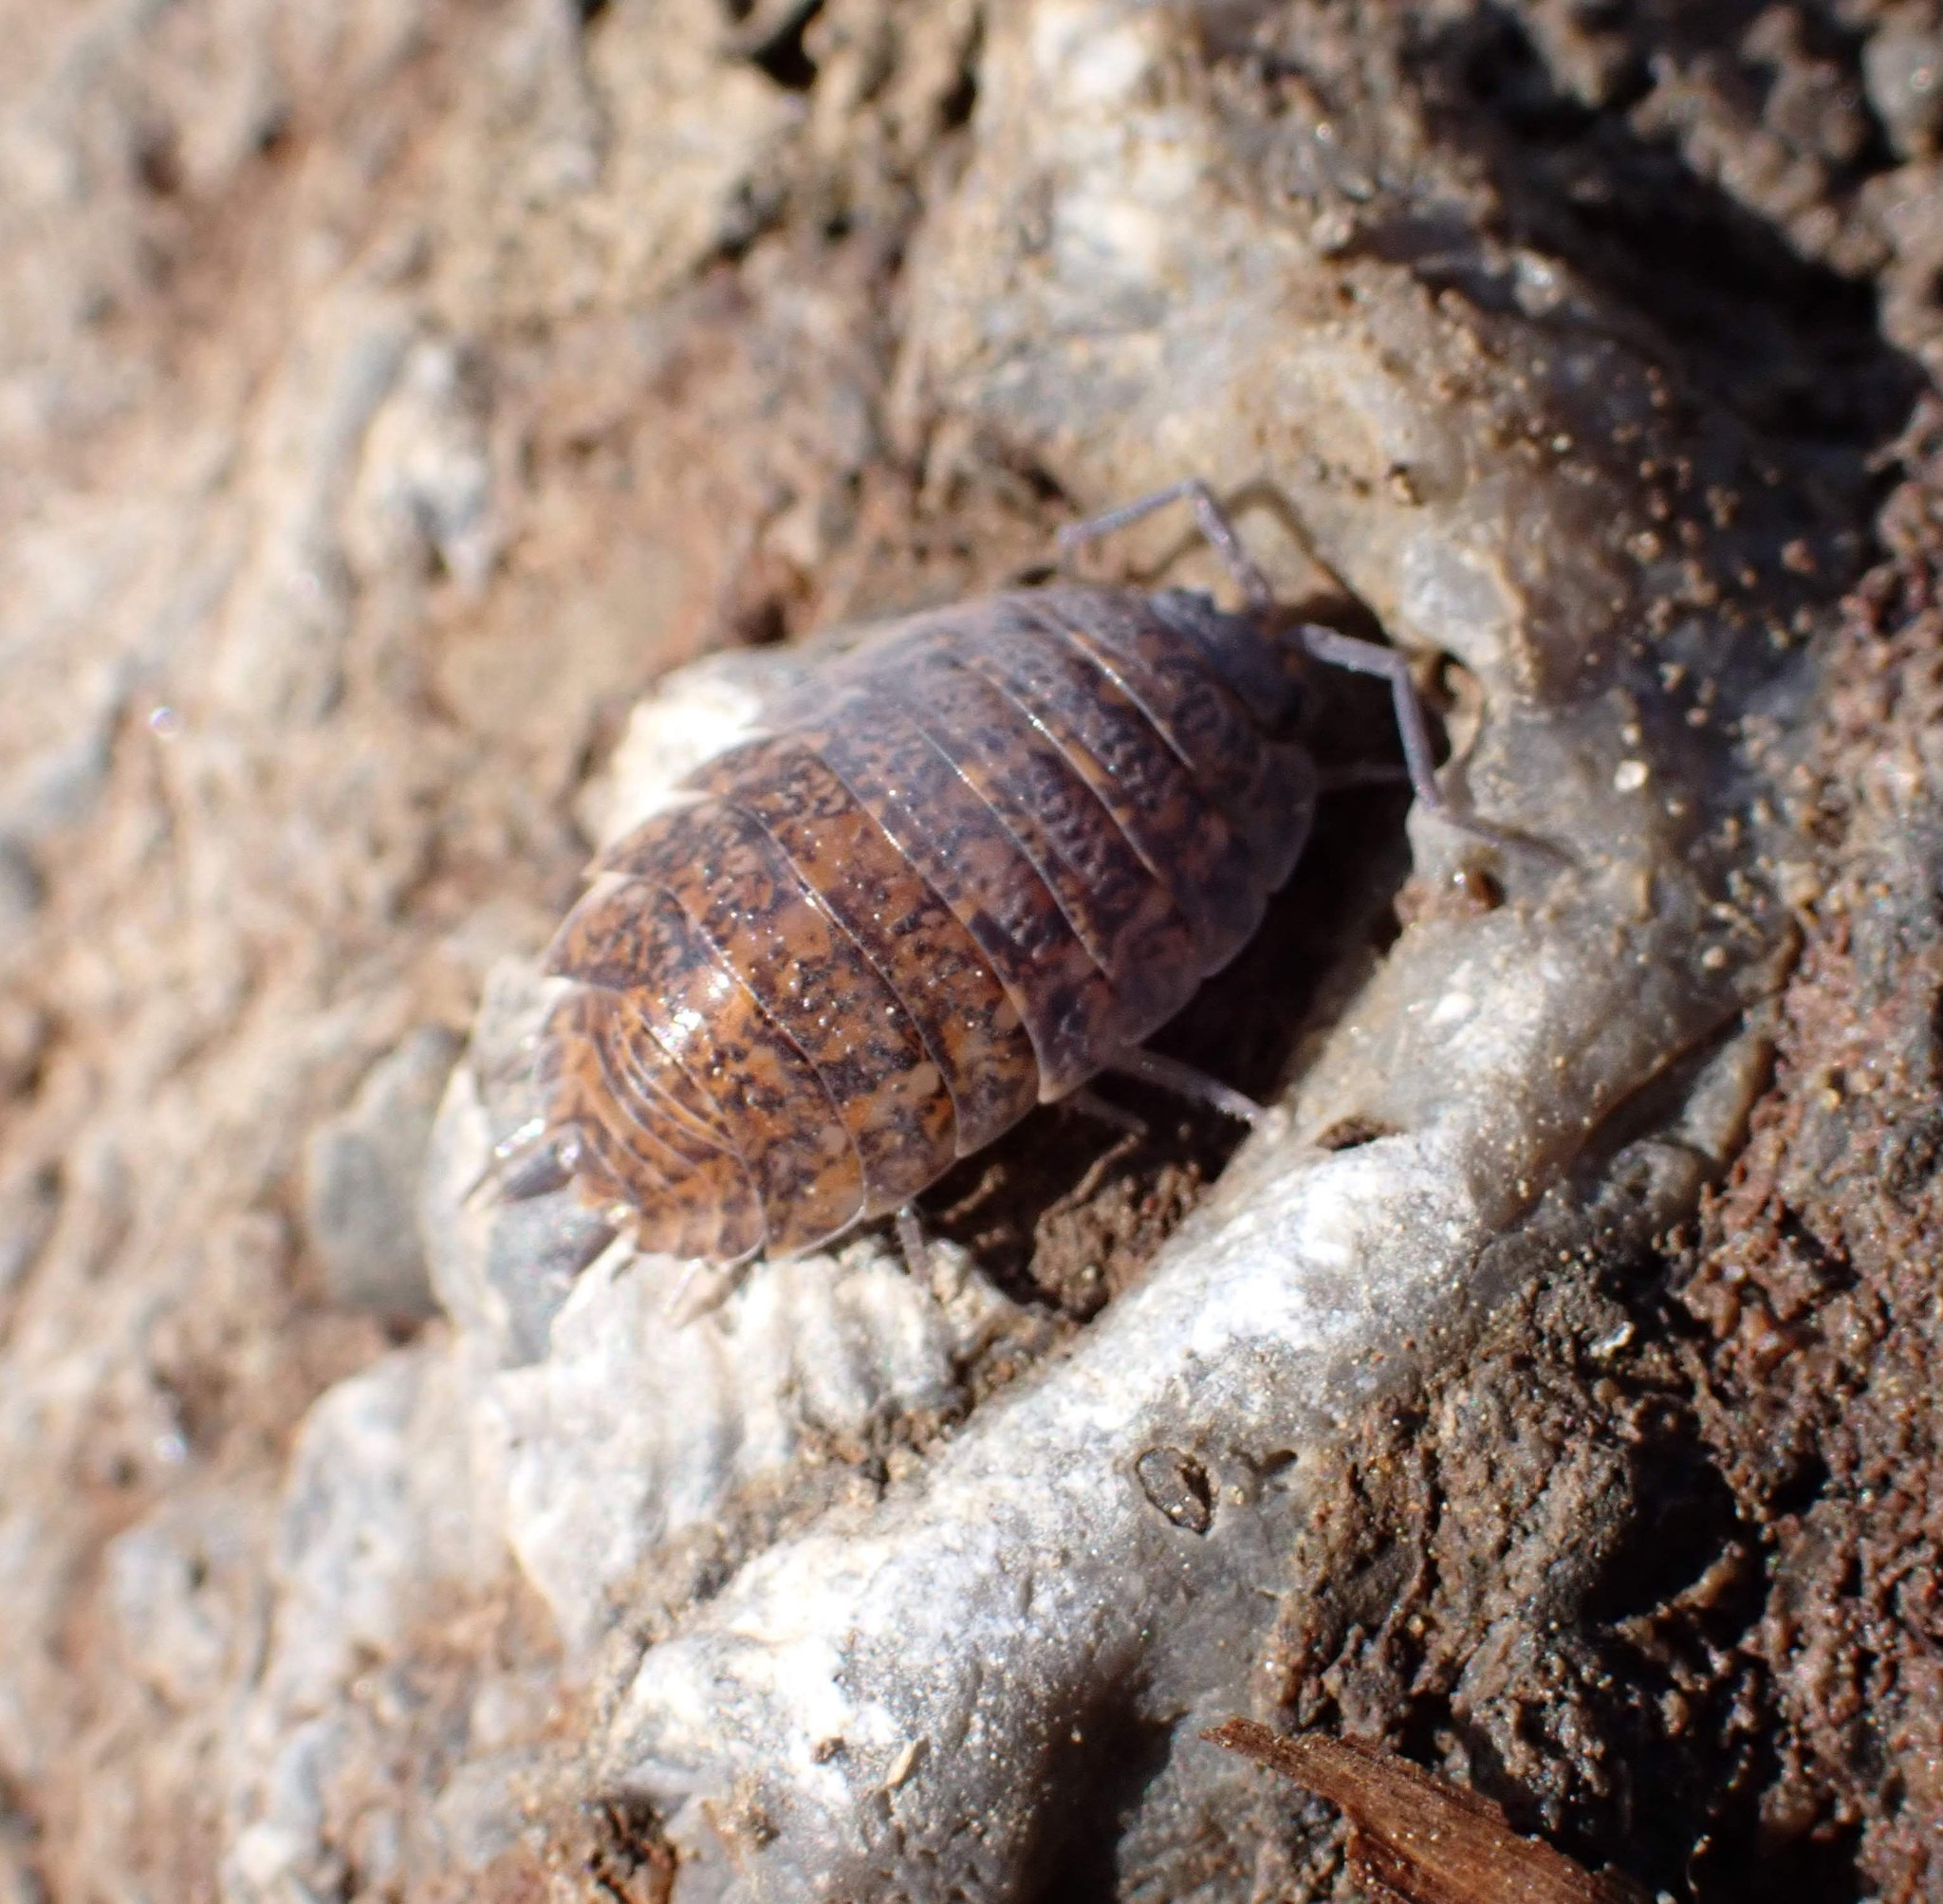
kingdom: Animalia
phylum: Arthropoda
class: Malacostraca
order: Isopoda
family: Trachelipodidae
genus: Trachelipus
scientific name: Trachelipus rathkii
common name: Isopod
